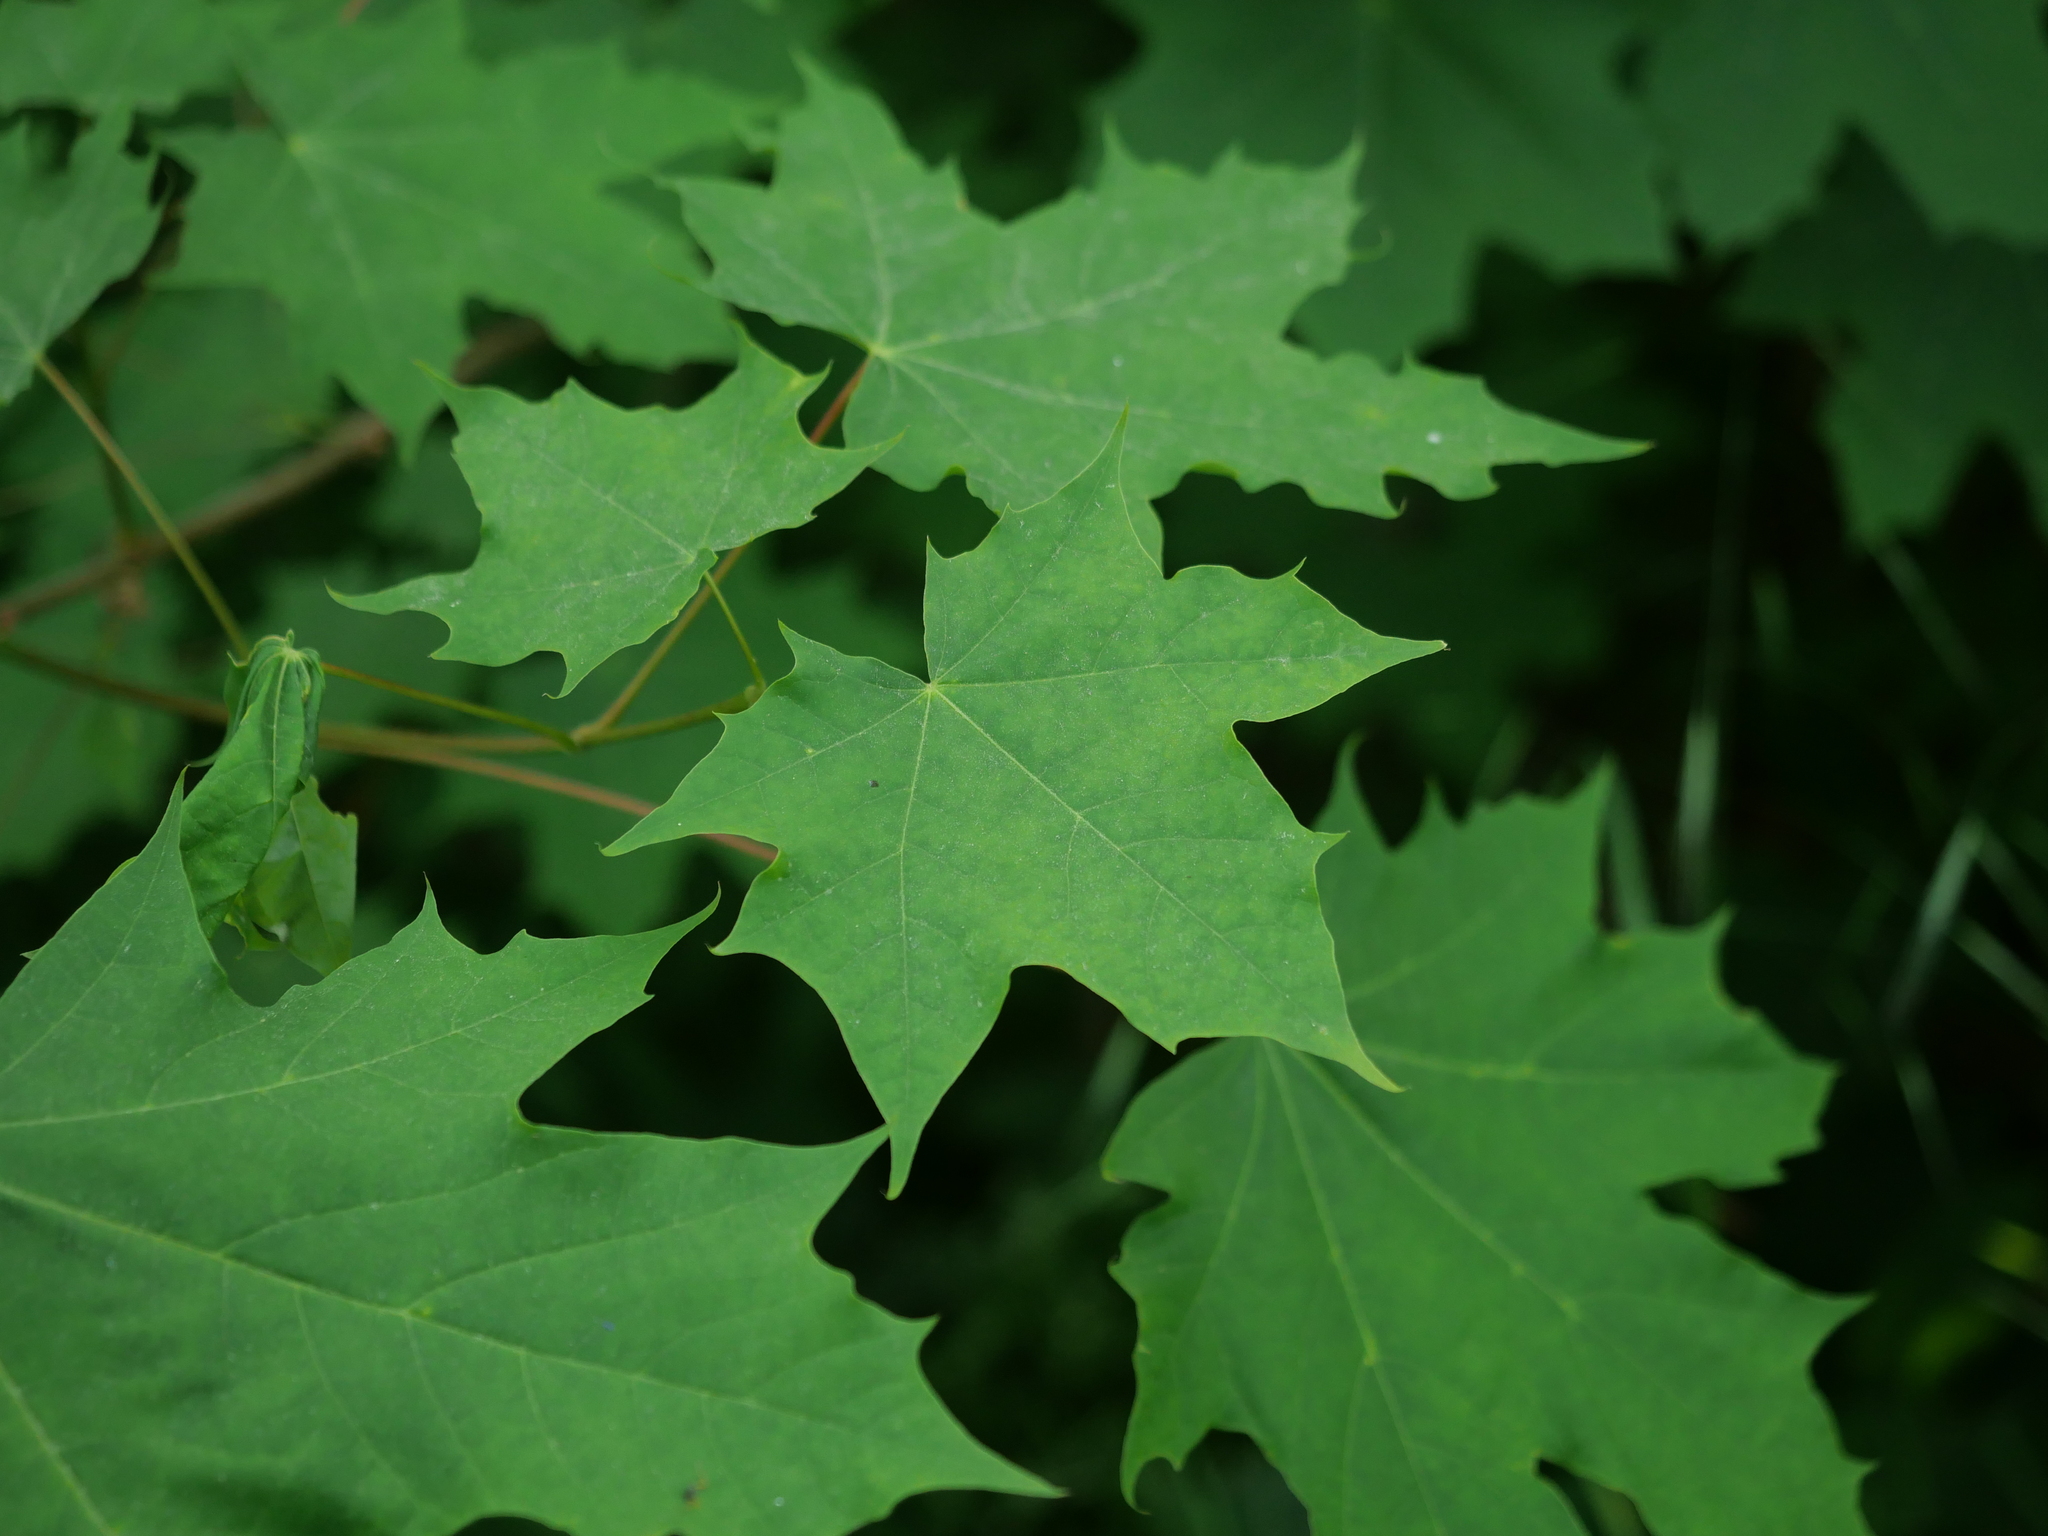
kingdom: Plantae
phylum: Tracheophyta
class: Magnoliopsida
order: Sapindales
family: Sapindaceae
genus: Acer
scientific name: Acer platanoides
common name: Norway maple
